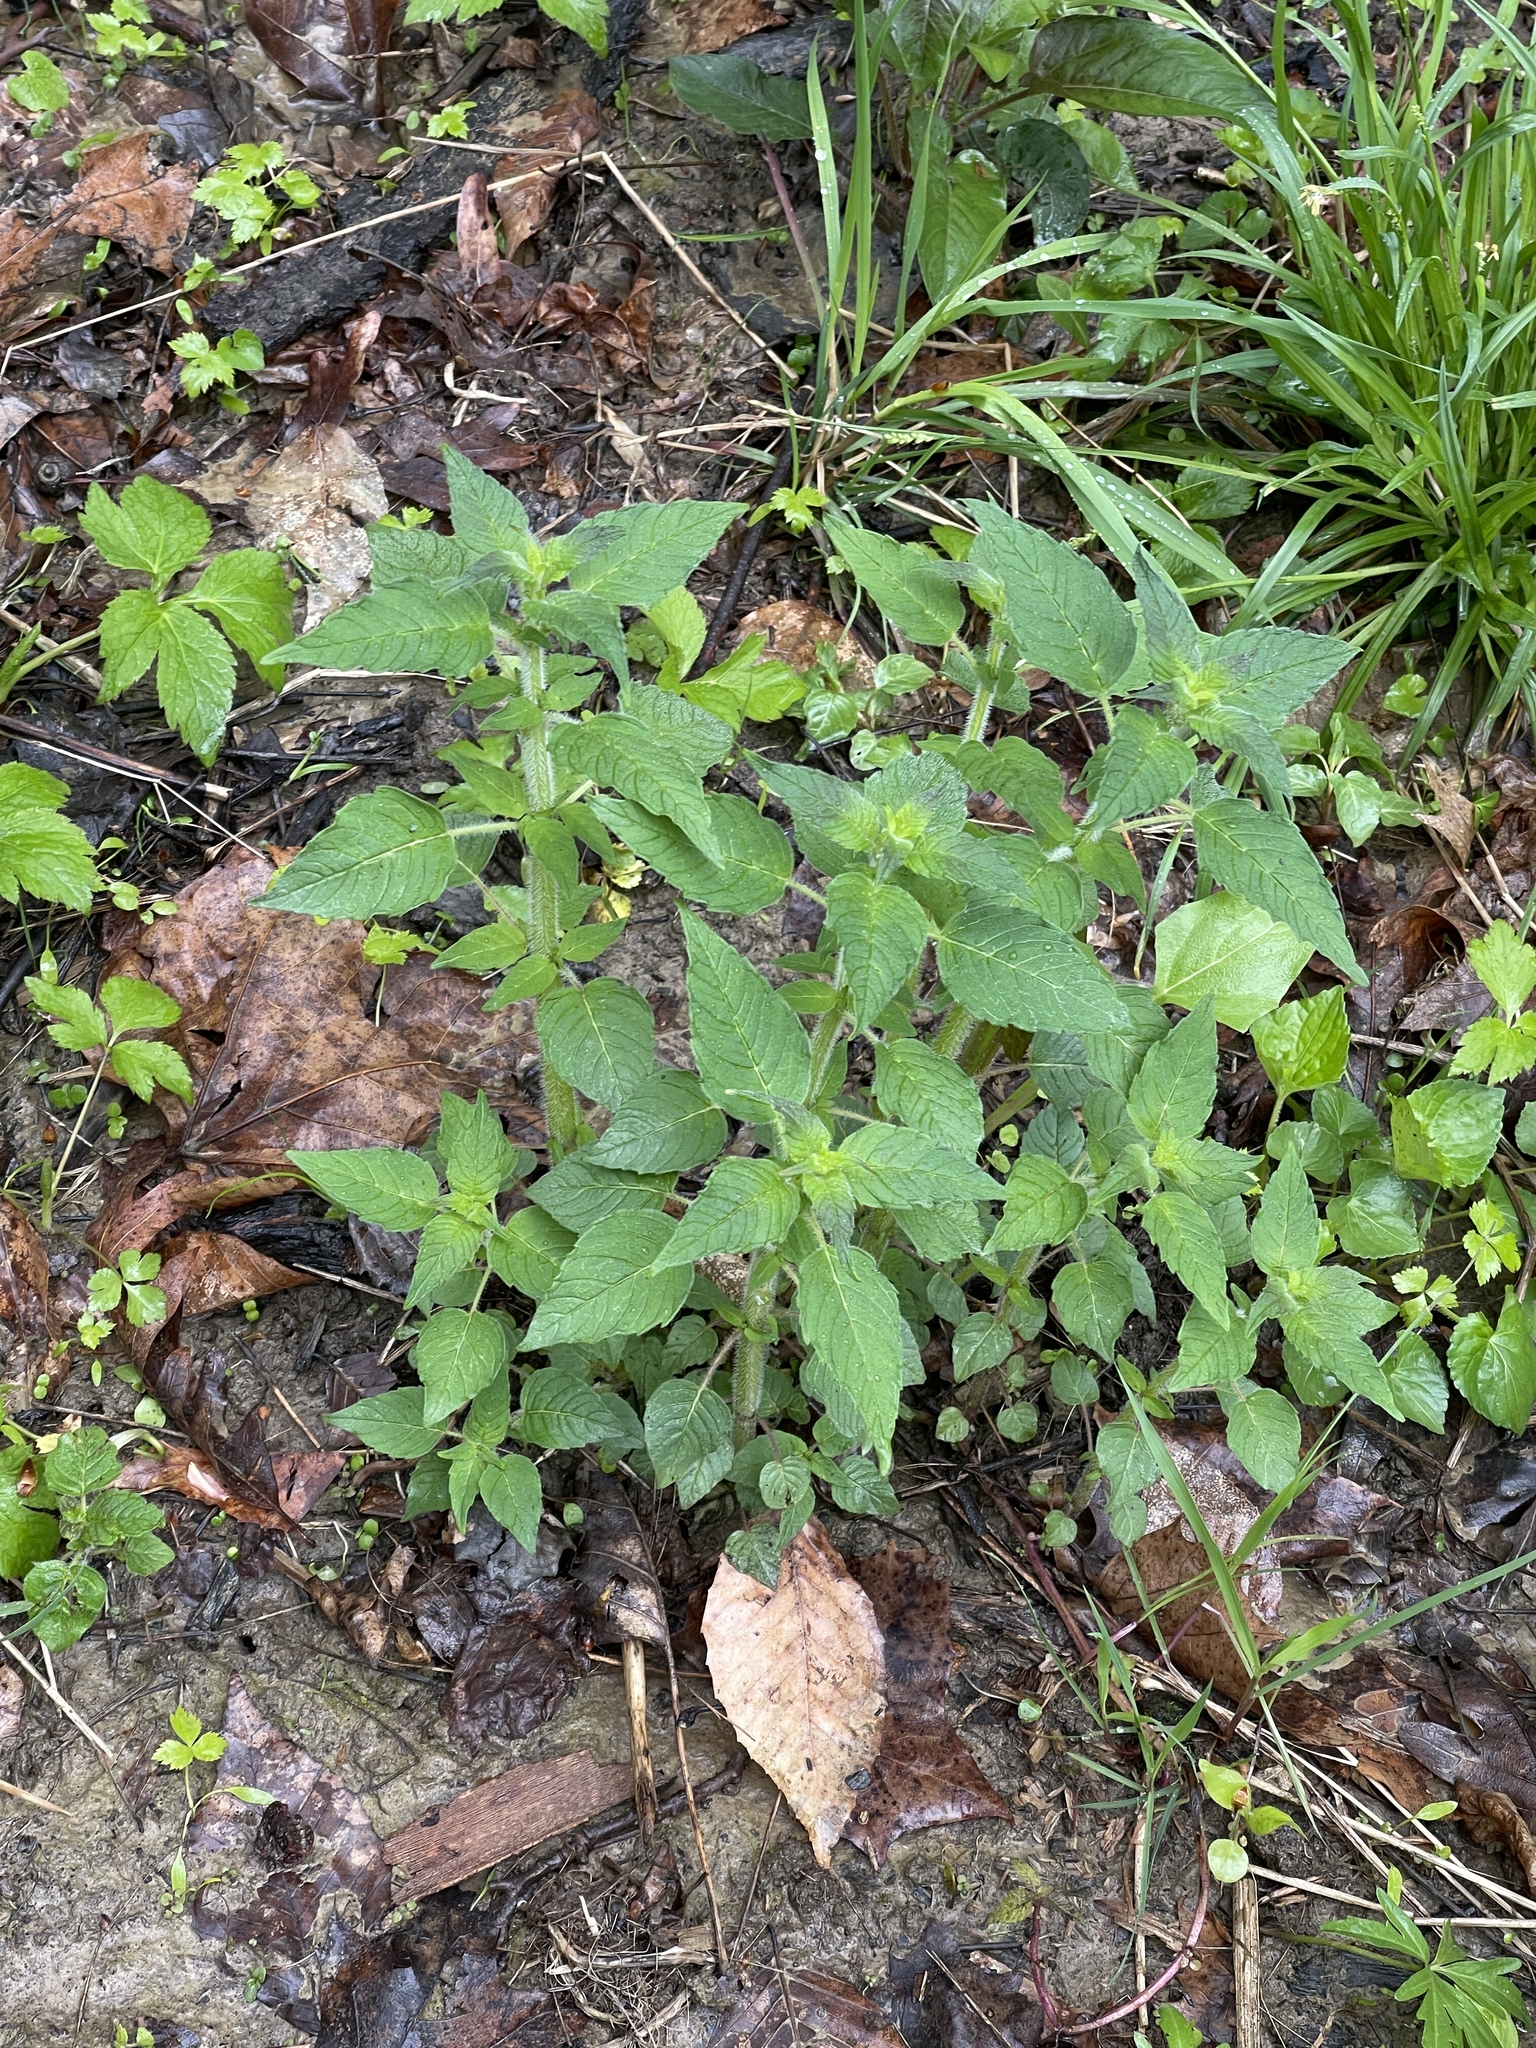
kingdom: Plantae
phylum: Tracheophyta
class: Magnoliopsida
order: Lamiales
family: Lamiaceae
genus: Blephilia
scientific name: Blephilia hirsuta
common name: Hairy blephilia
